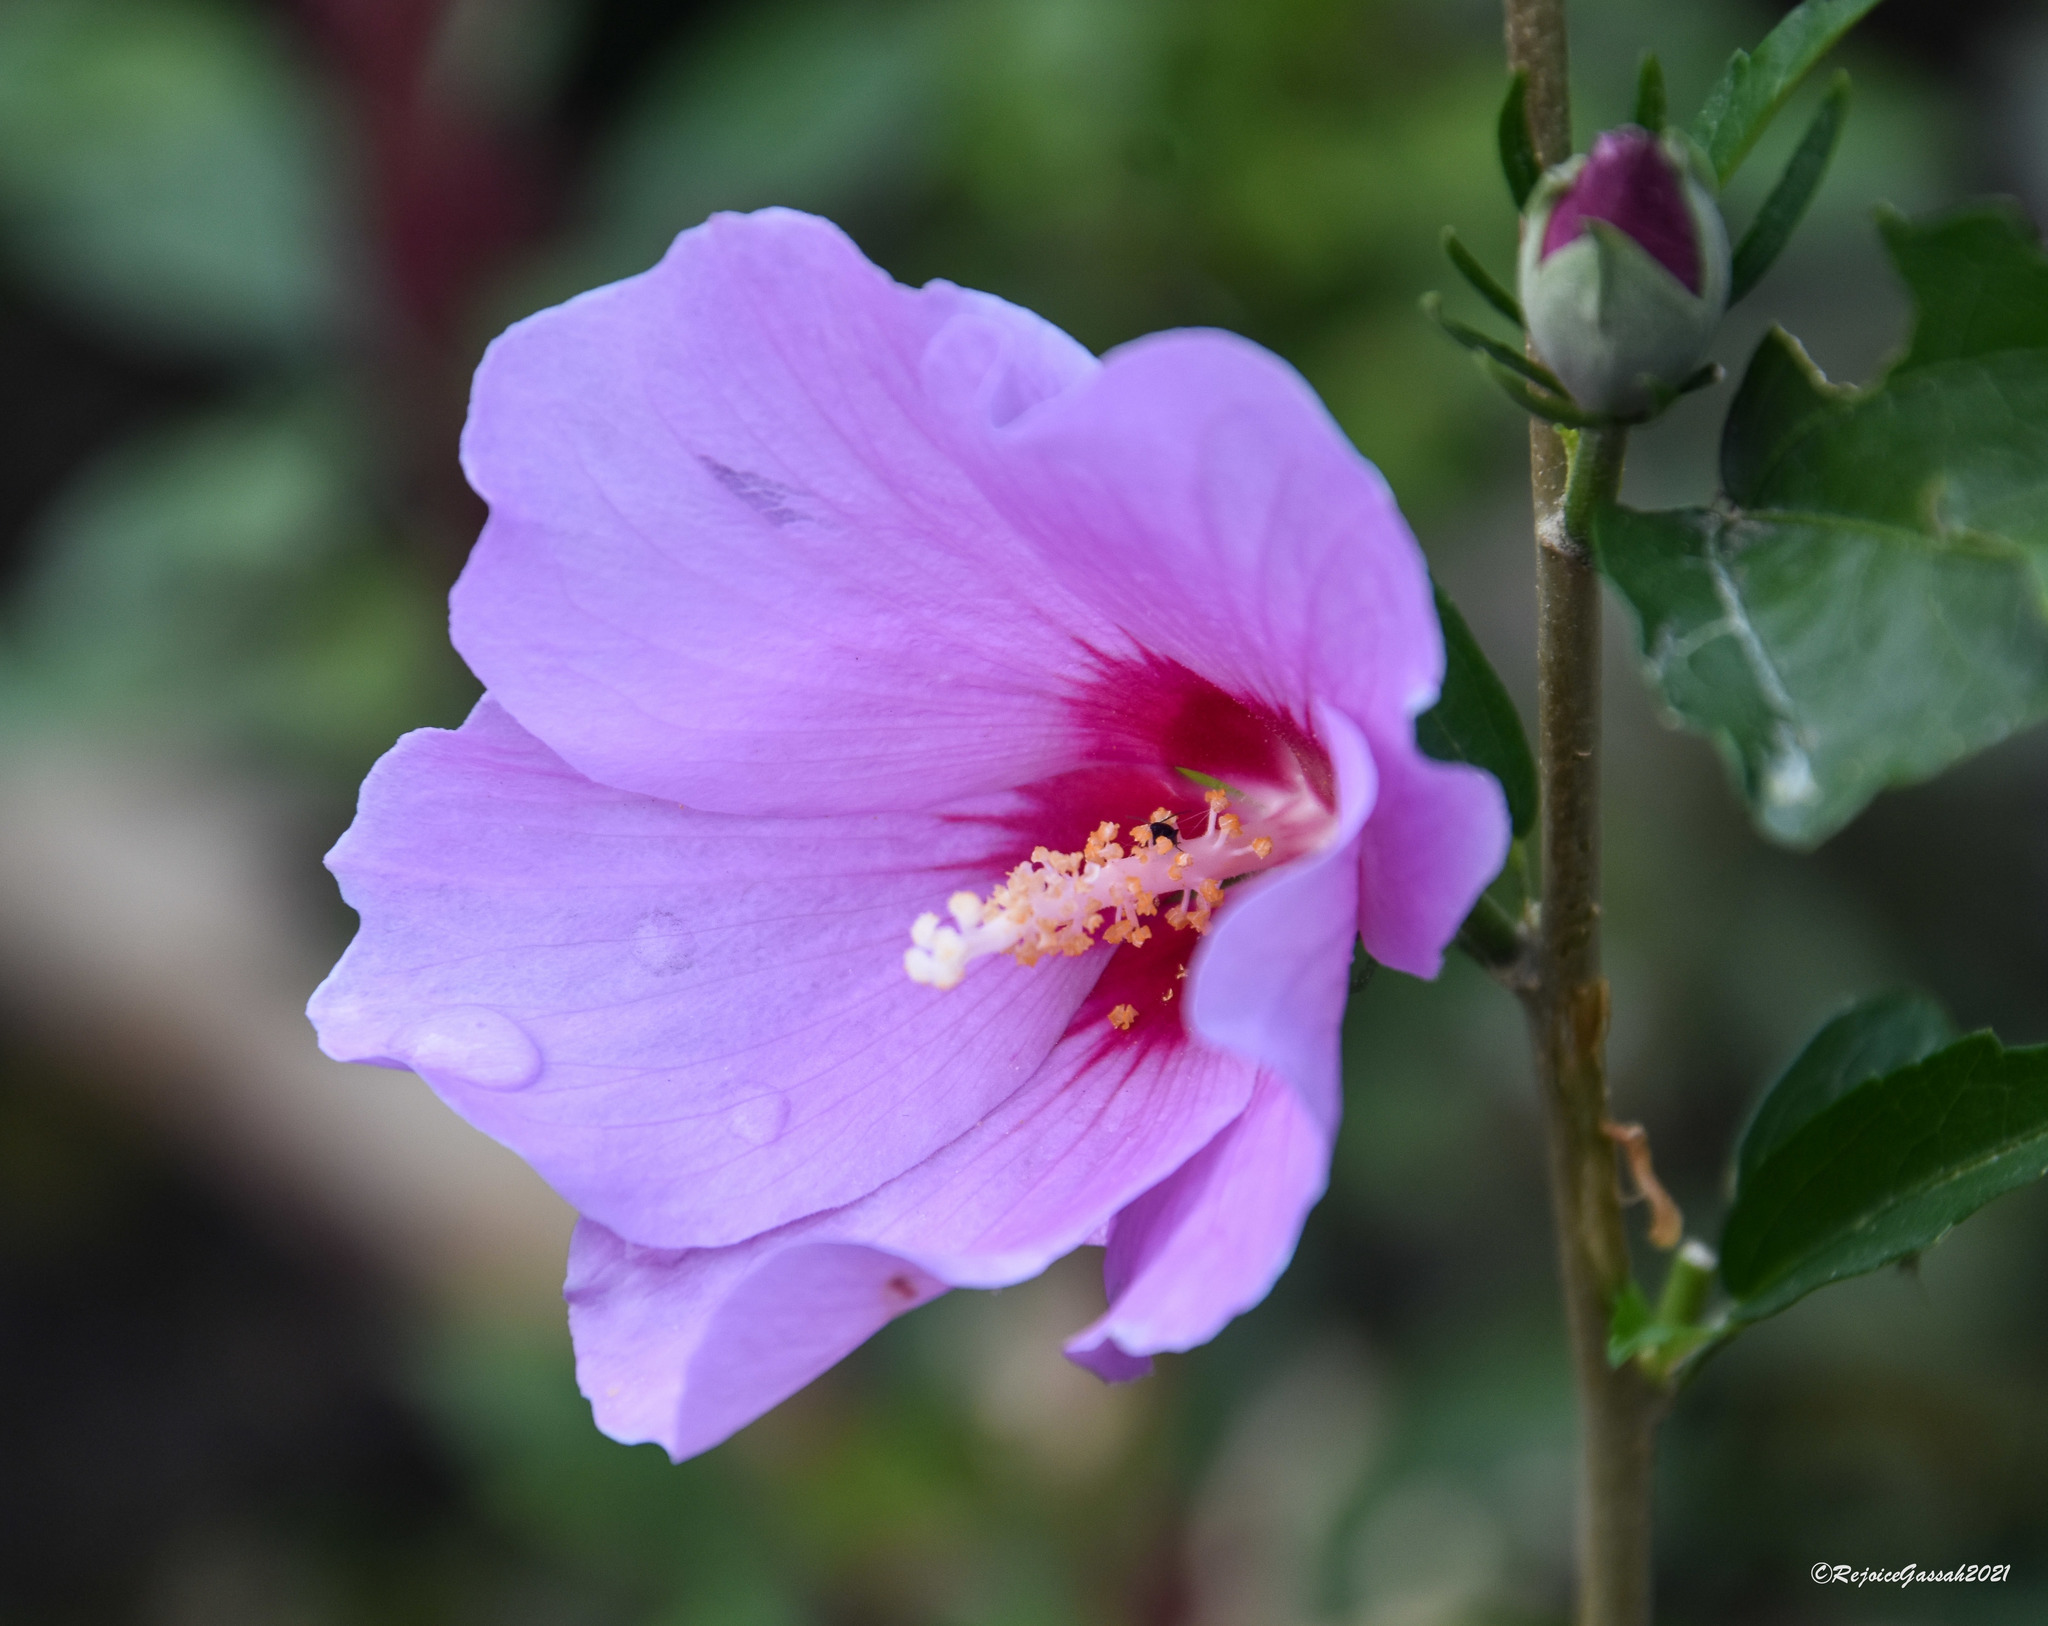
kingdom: Plantae
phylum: Tracheophyta
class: Magnoliopsida
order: Malvales
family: Malvaceae
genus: Hibiscus
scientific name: Hibiscus syriacus
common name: Syrian ketmia
